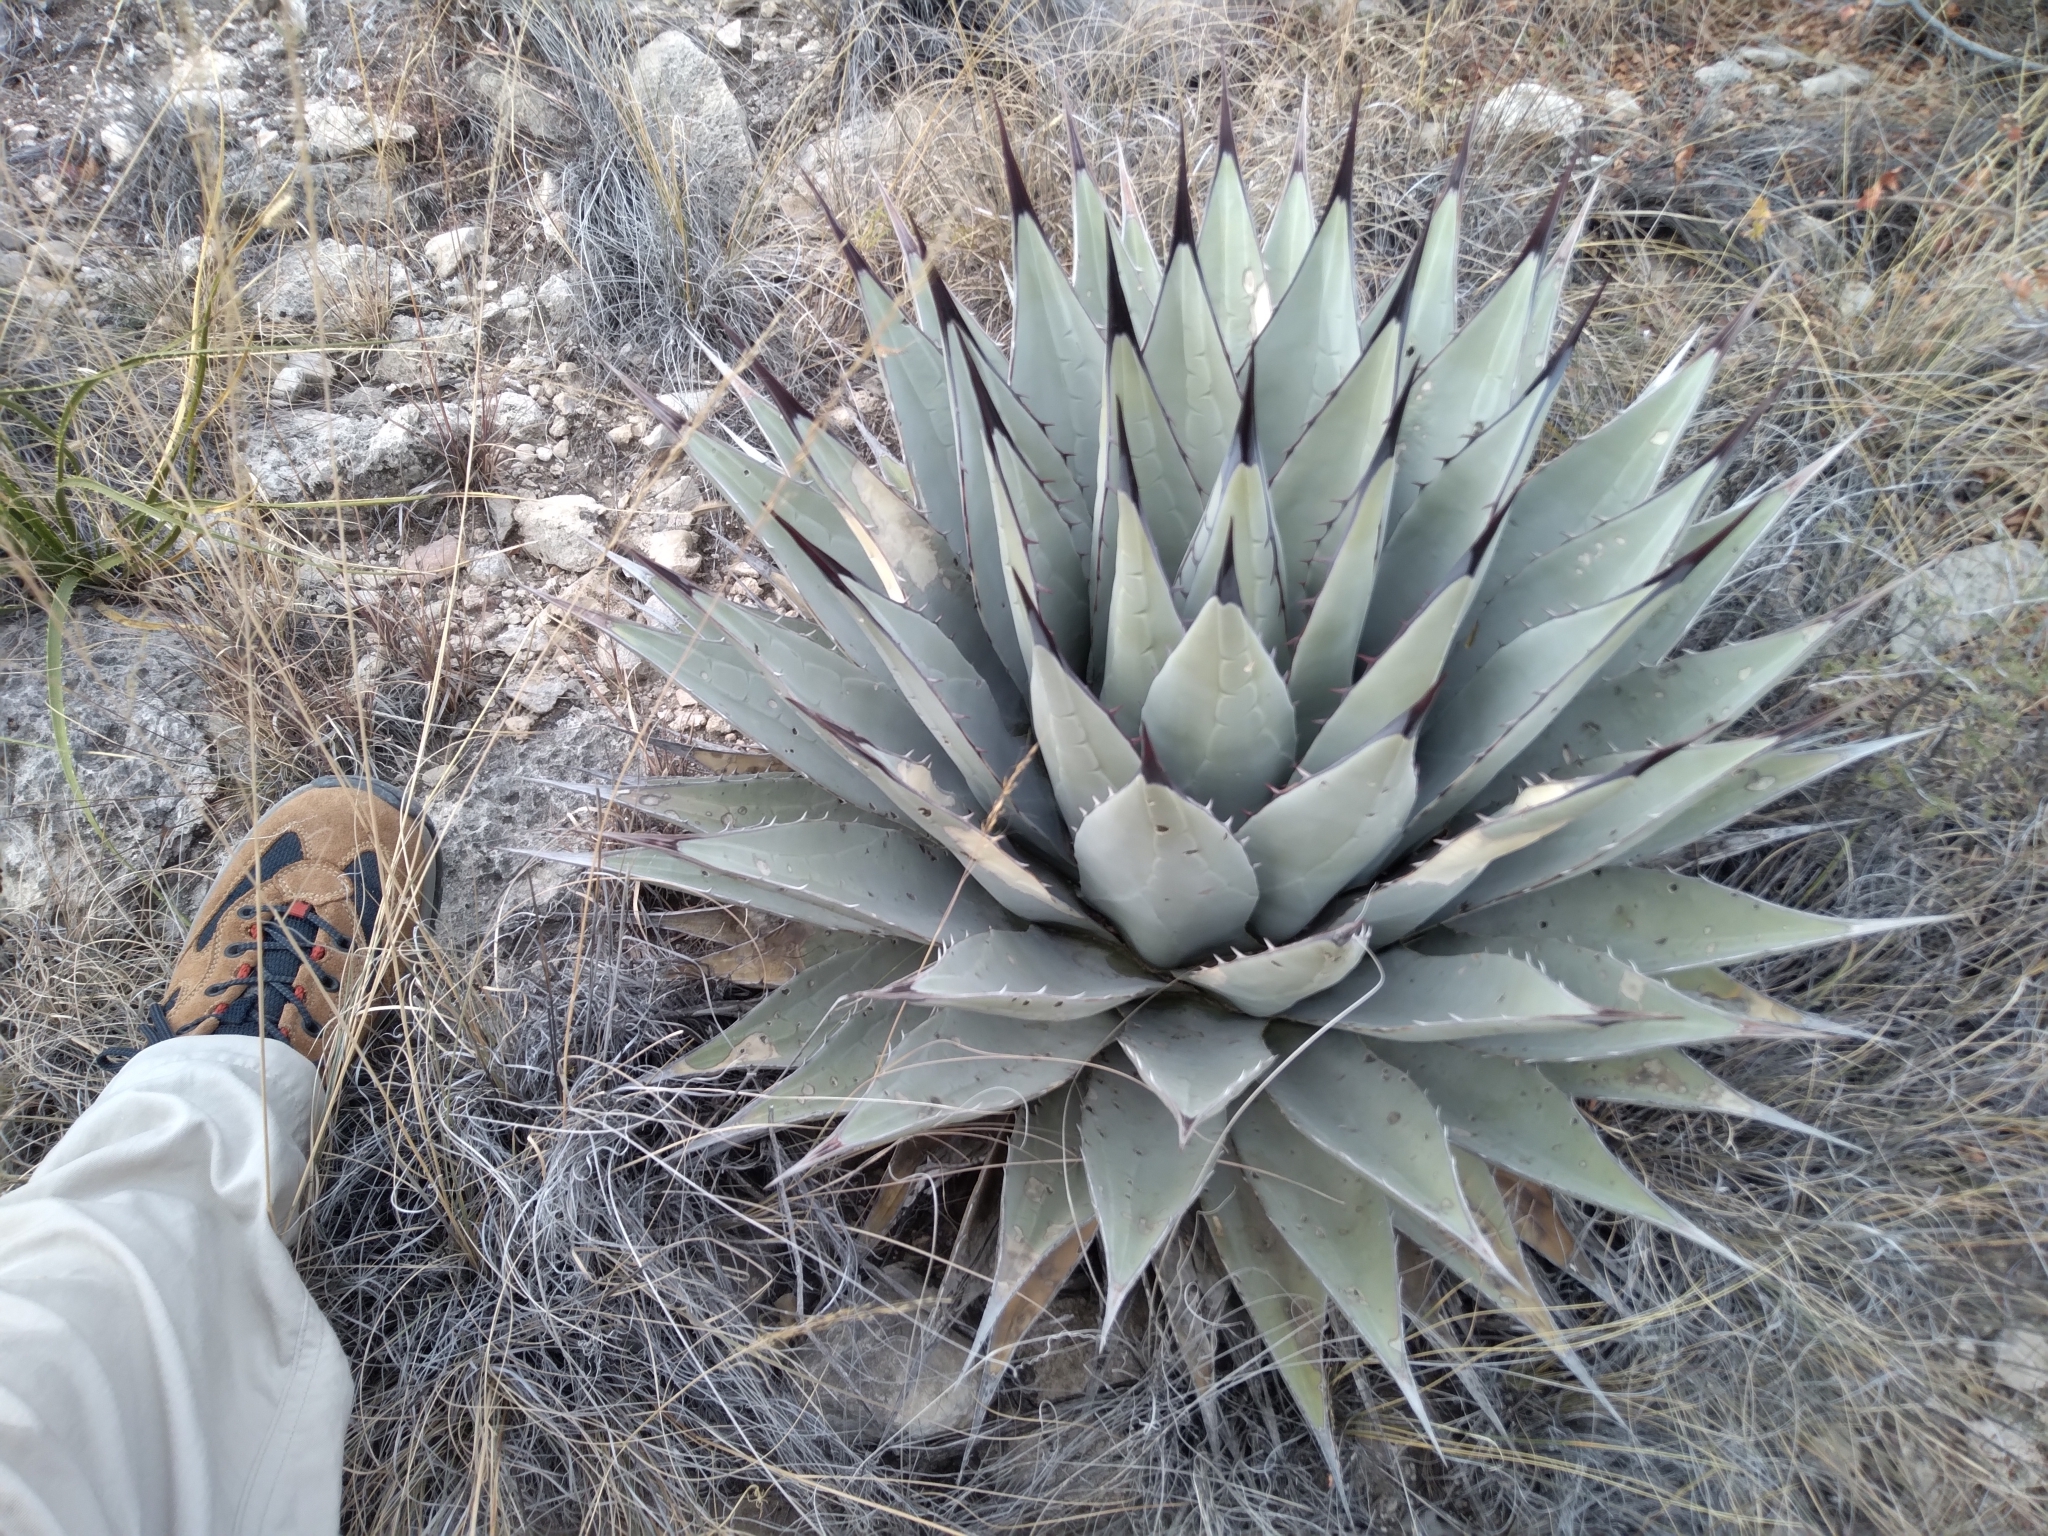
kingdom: Plantae
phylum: Tracheophyta
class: Liliopsida
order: Asparagales
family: Asparagaceae
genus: Agave
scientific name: Agave parryi
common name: Parry's agave
